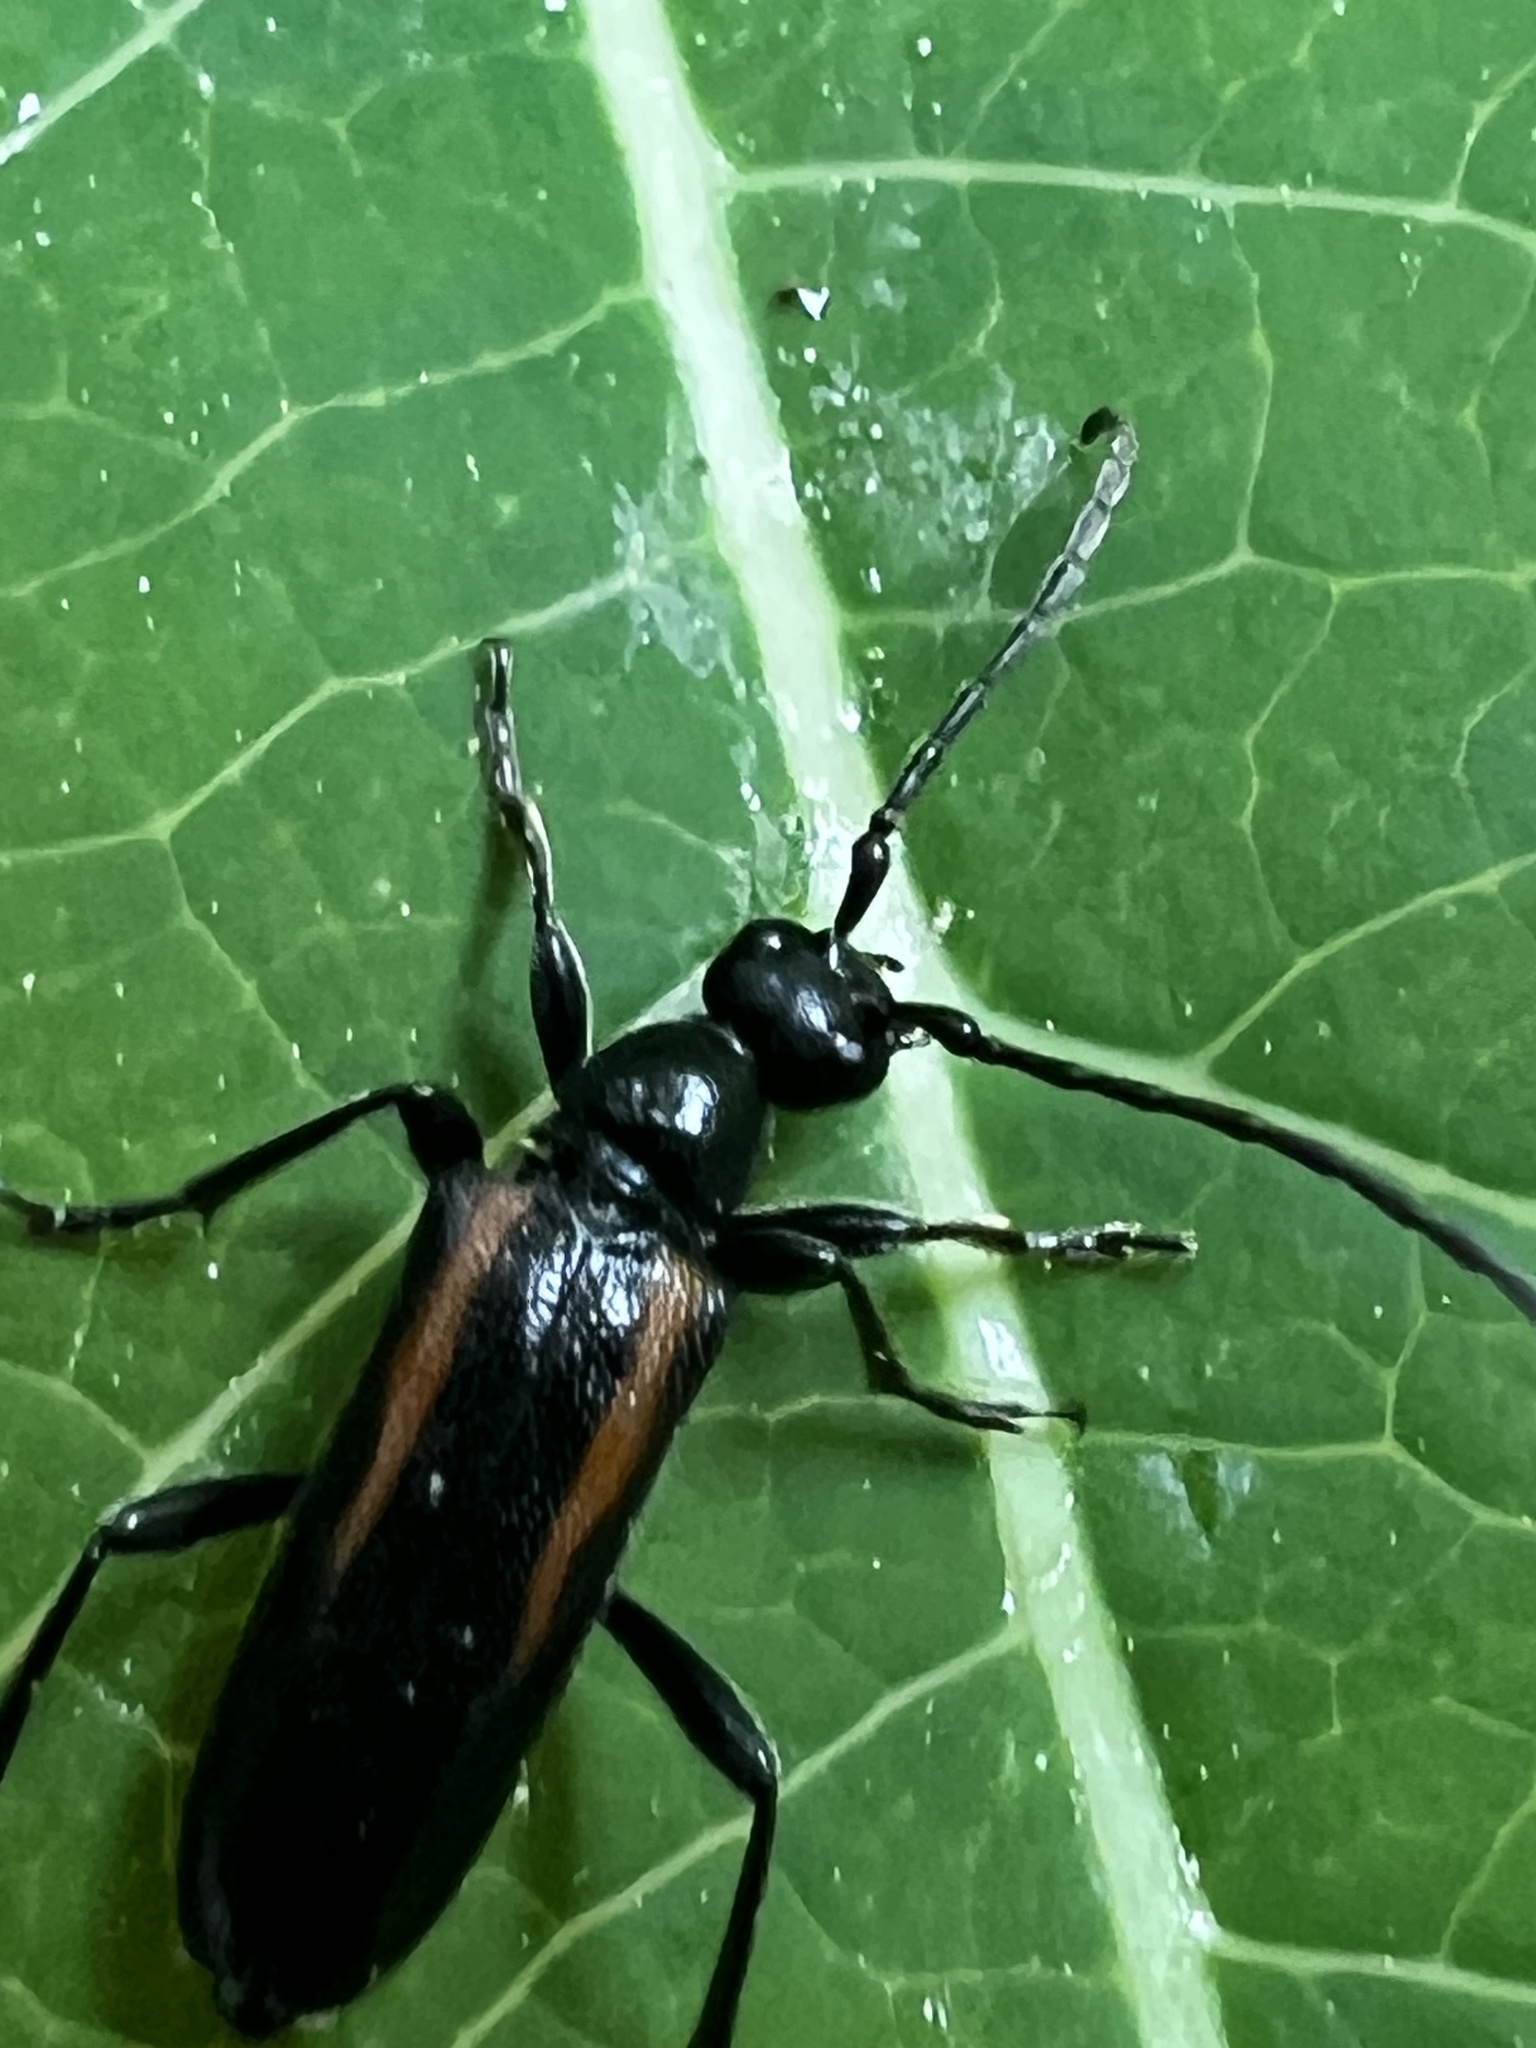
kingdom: Animalia
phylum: Arthropoda
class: Insecta
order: Coleoptera
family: Cerambycidae
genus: Strangalepta
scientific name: Strangalepta abbreviata
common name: Strangalepta flower longhorn beetle
